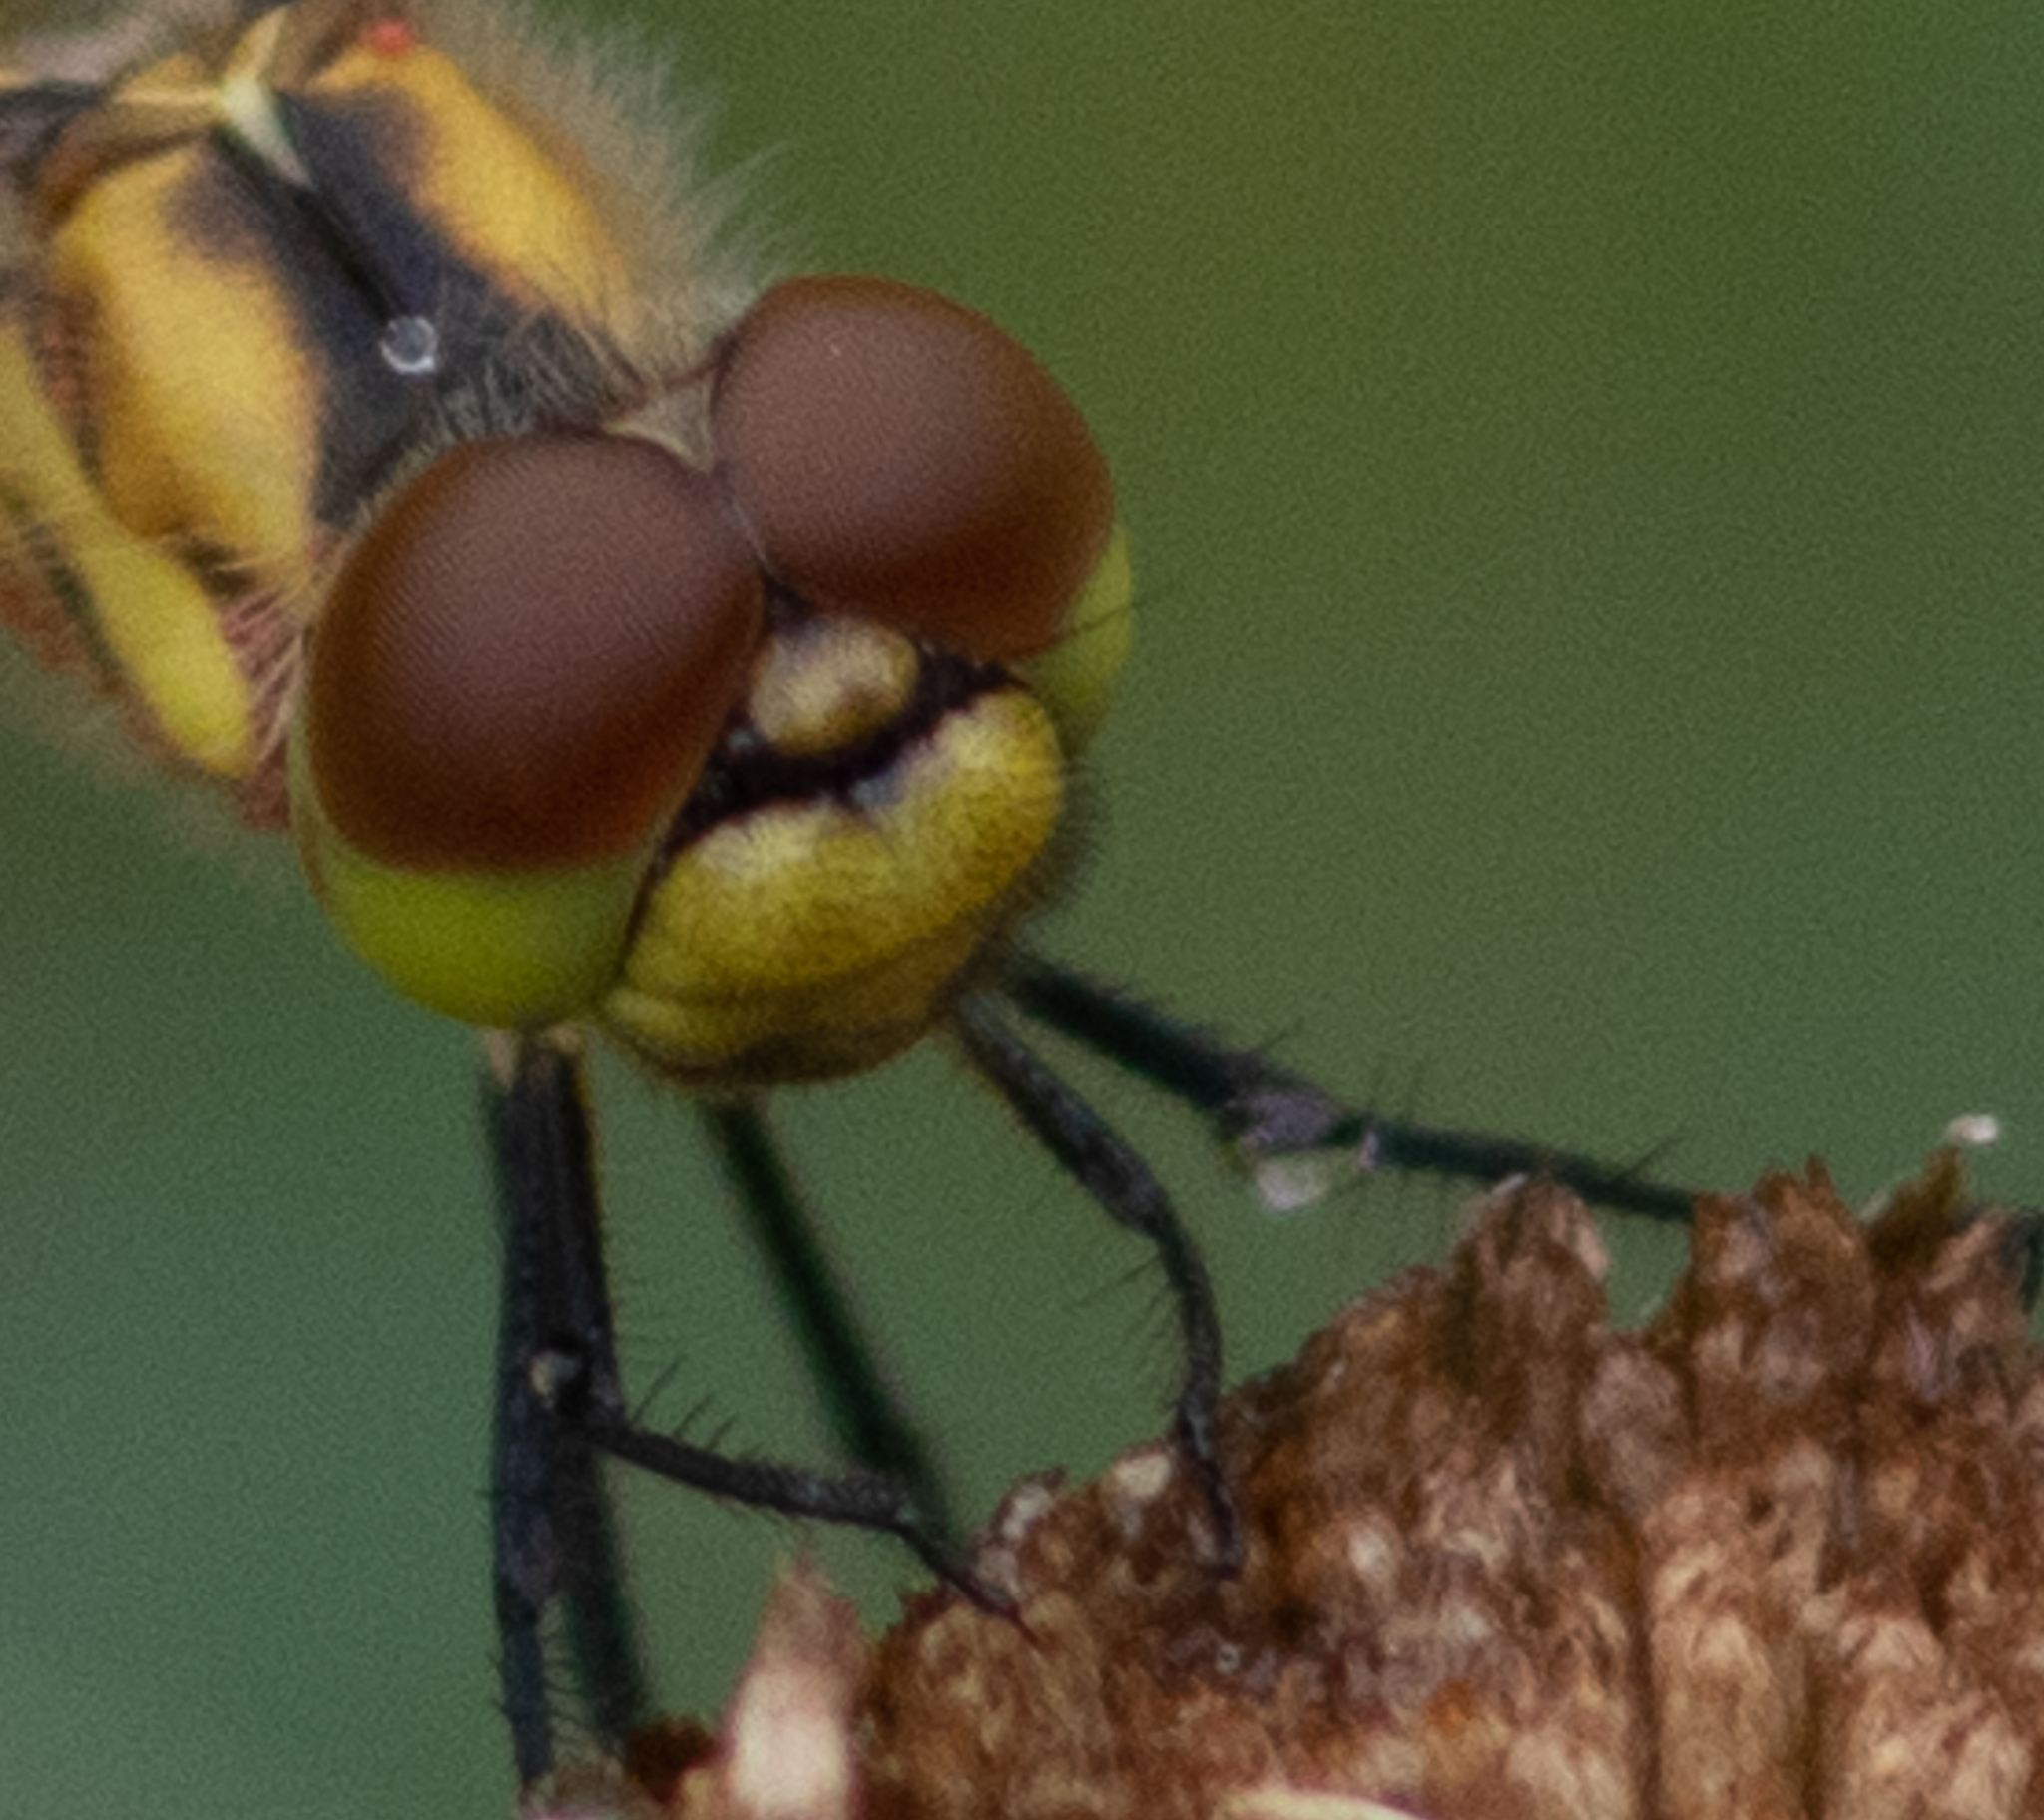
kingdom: Animalia
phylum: Arthropoda
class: Insecta
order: Odonata
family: Libellulidae
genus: Celithemis
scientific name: Celithemis elisa
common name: Calico pennant
